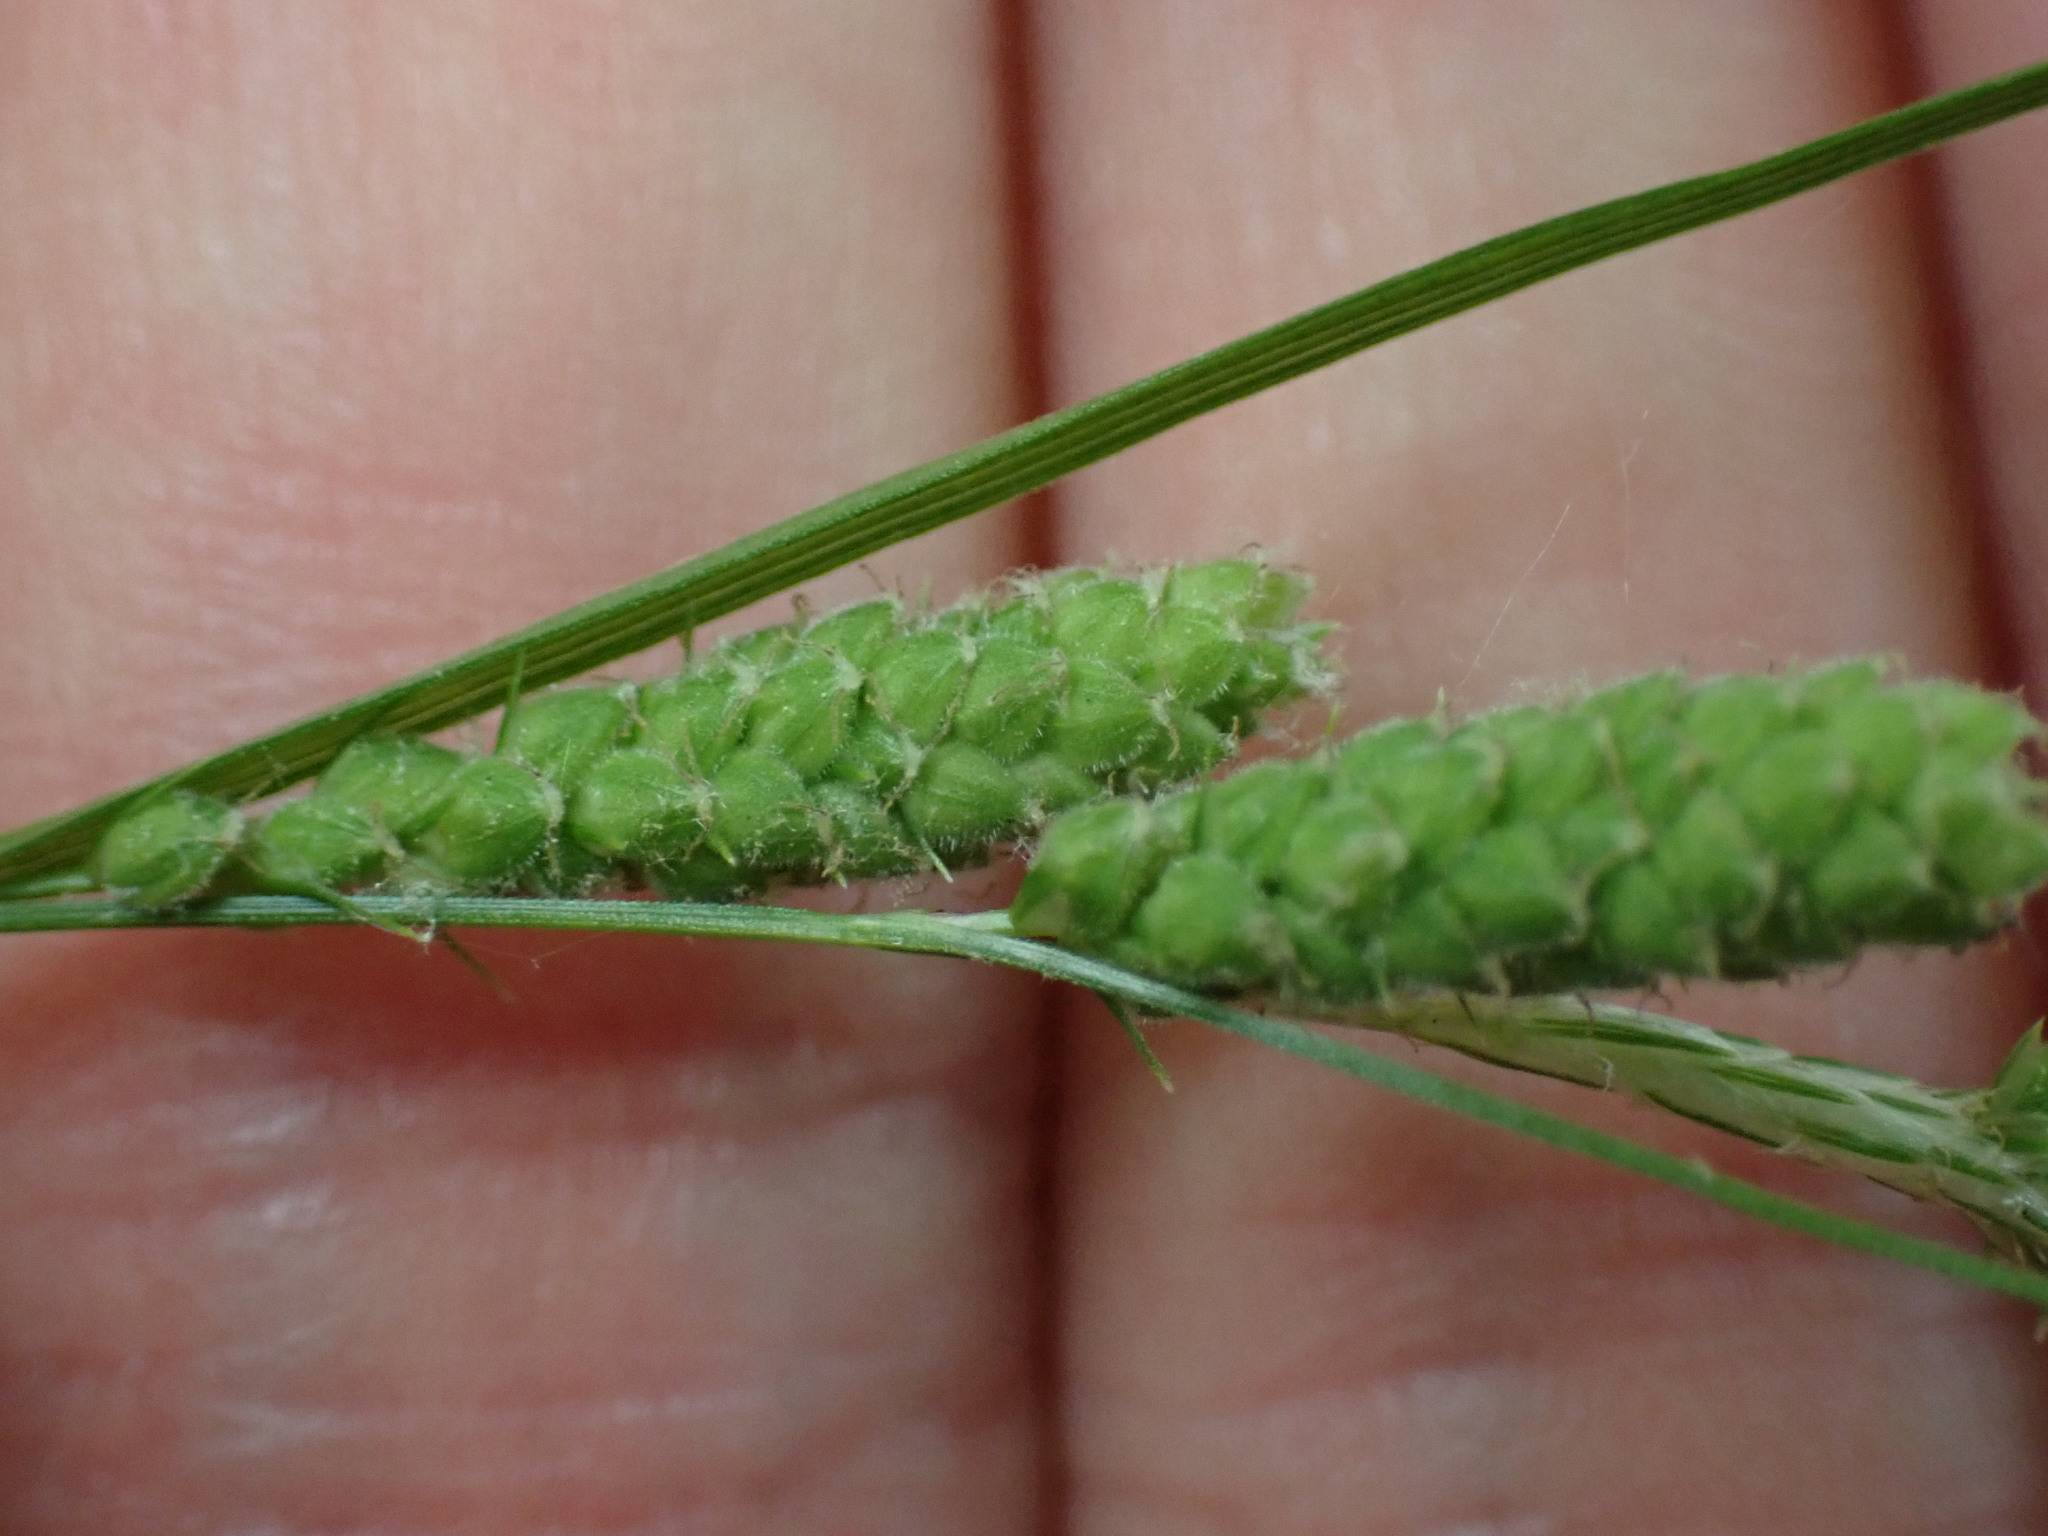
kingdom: Plantae
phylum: Tracheophyta
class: Liliopsida
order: Poales
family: Cyperaceae
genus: Carex
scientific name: Carex swanii
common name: Downy green sedge
